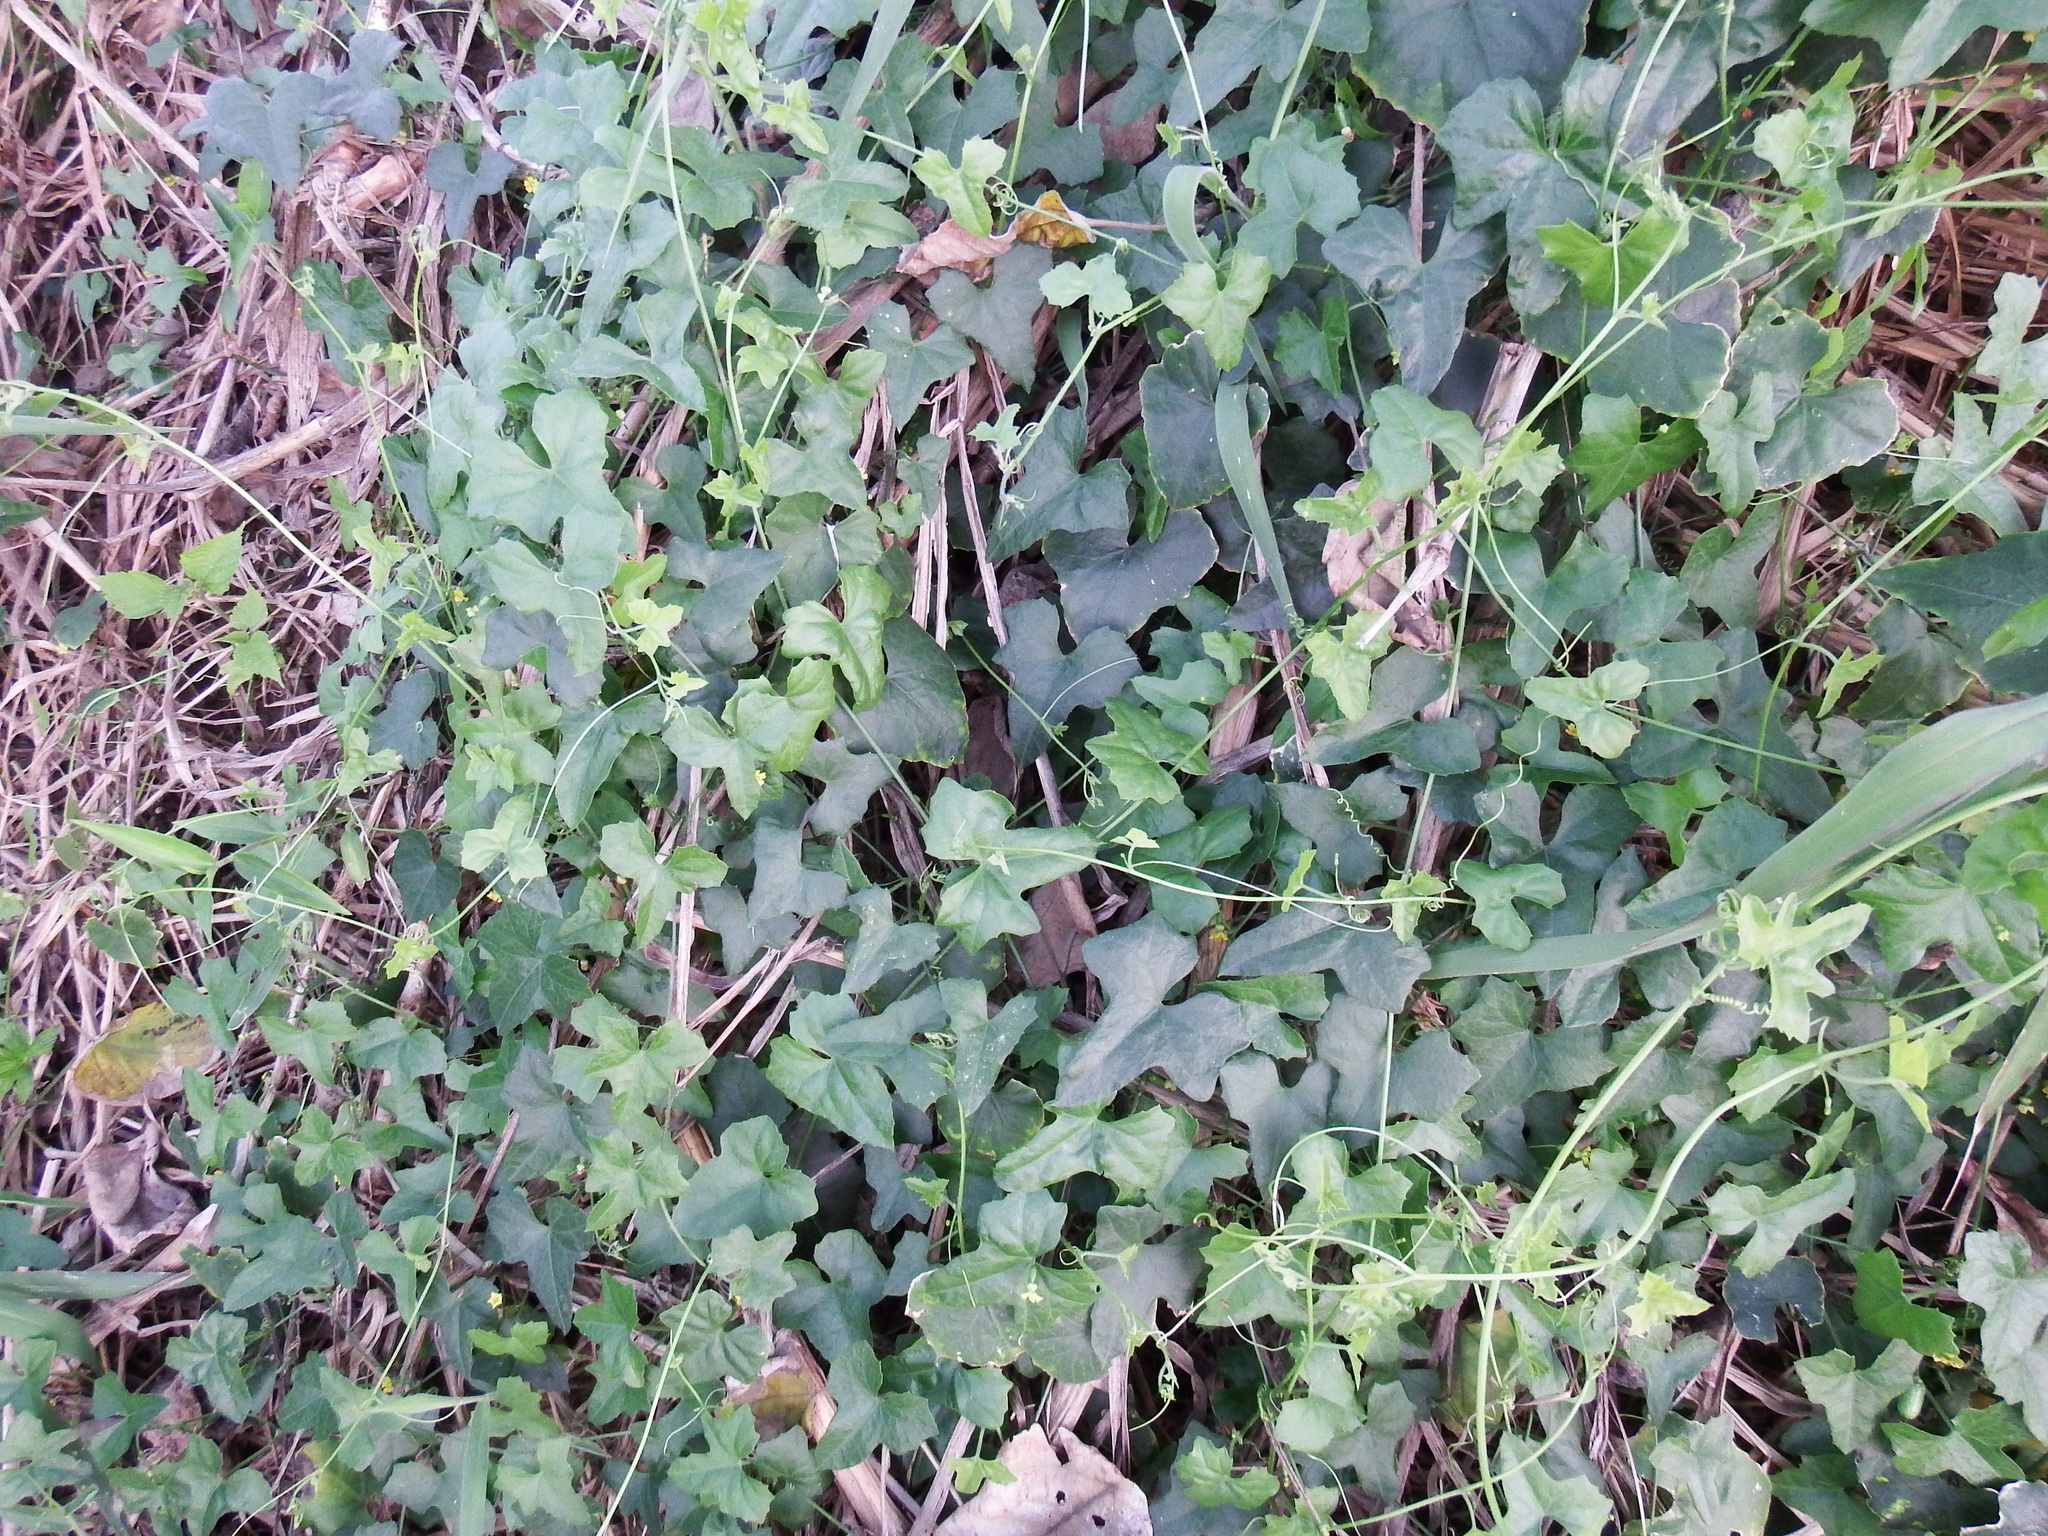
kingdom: Plantae
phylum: Tracheophyta
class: Magnoliopsida
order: Cucurbitales
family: Cucurbitaceae
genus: Melothria
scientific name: Melothria pendula
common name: Creeping-cucumber
